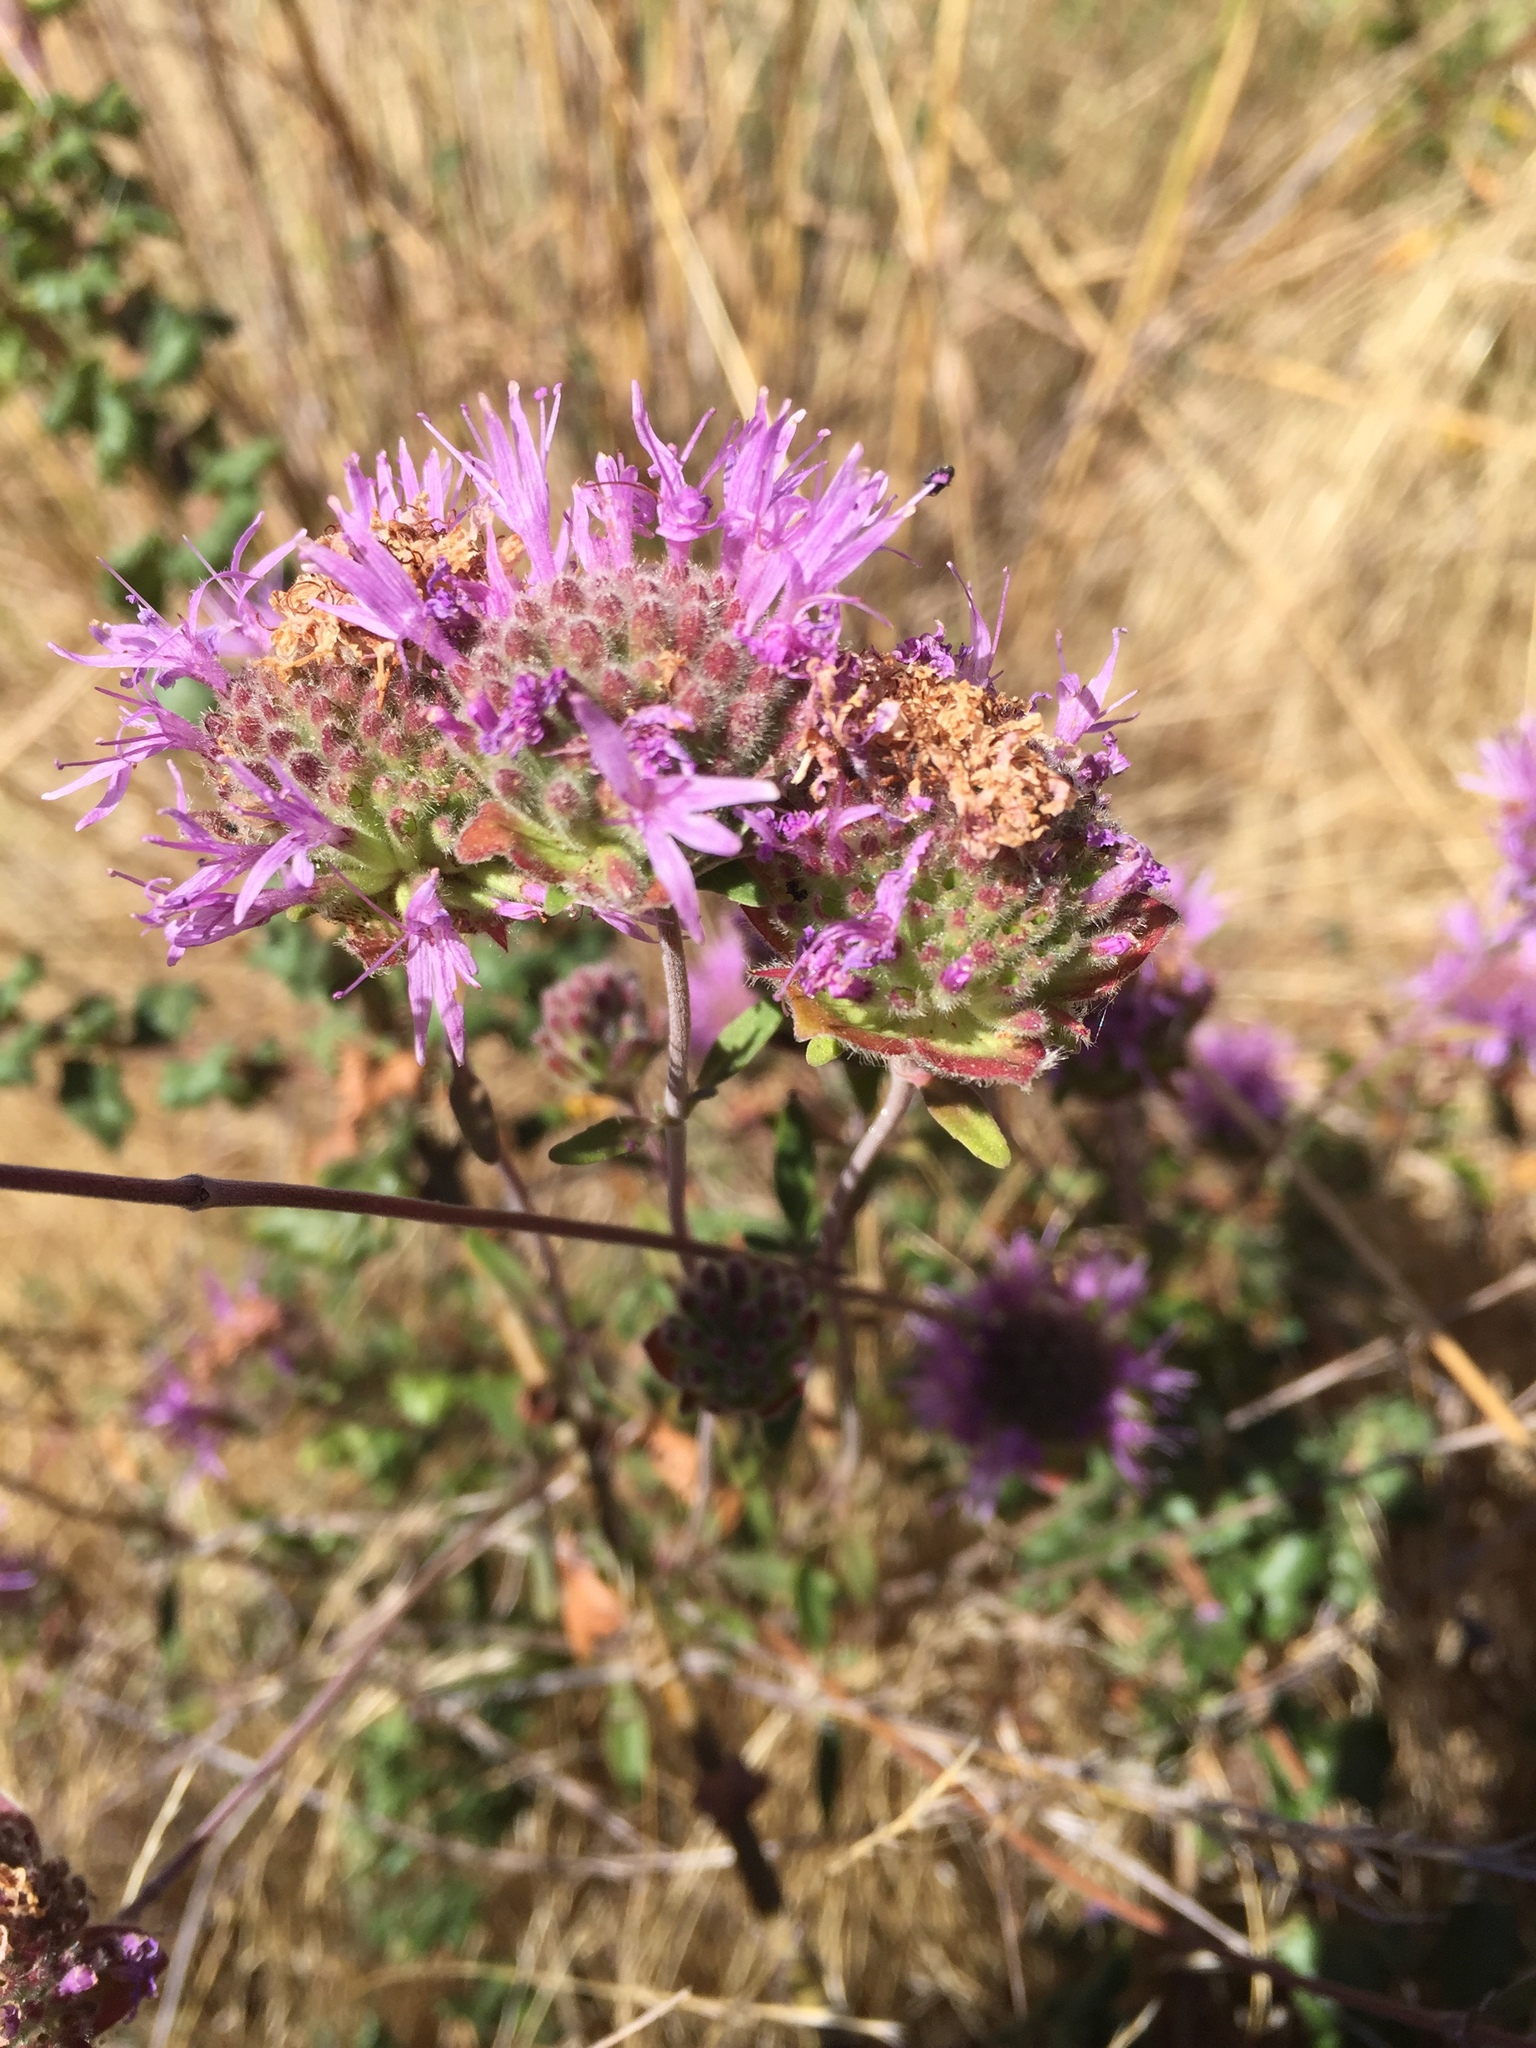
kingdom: Plantae
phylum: Tracheophyta
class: Magnoliopsida
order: Lamiales
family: Lamiaceae
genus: Monardella
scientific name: Monardella odoratissima
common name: Pacific monardella
